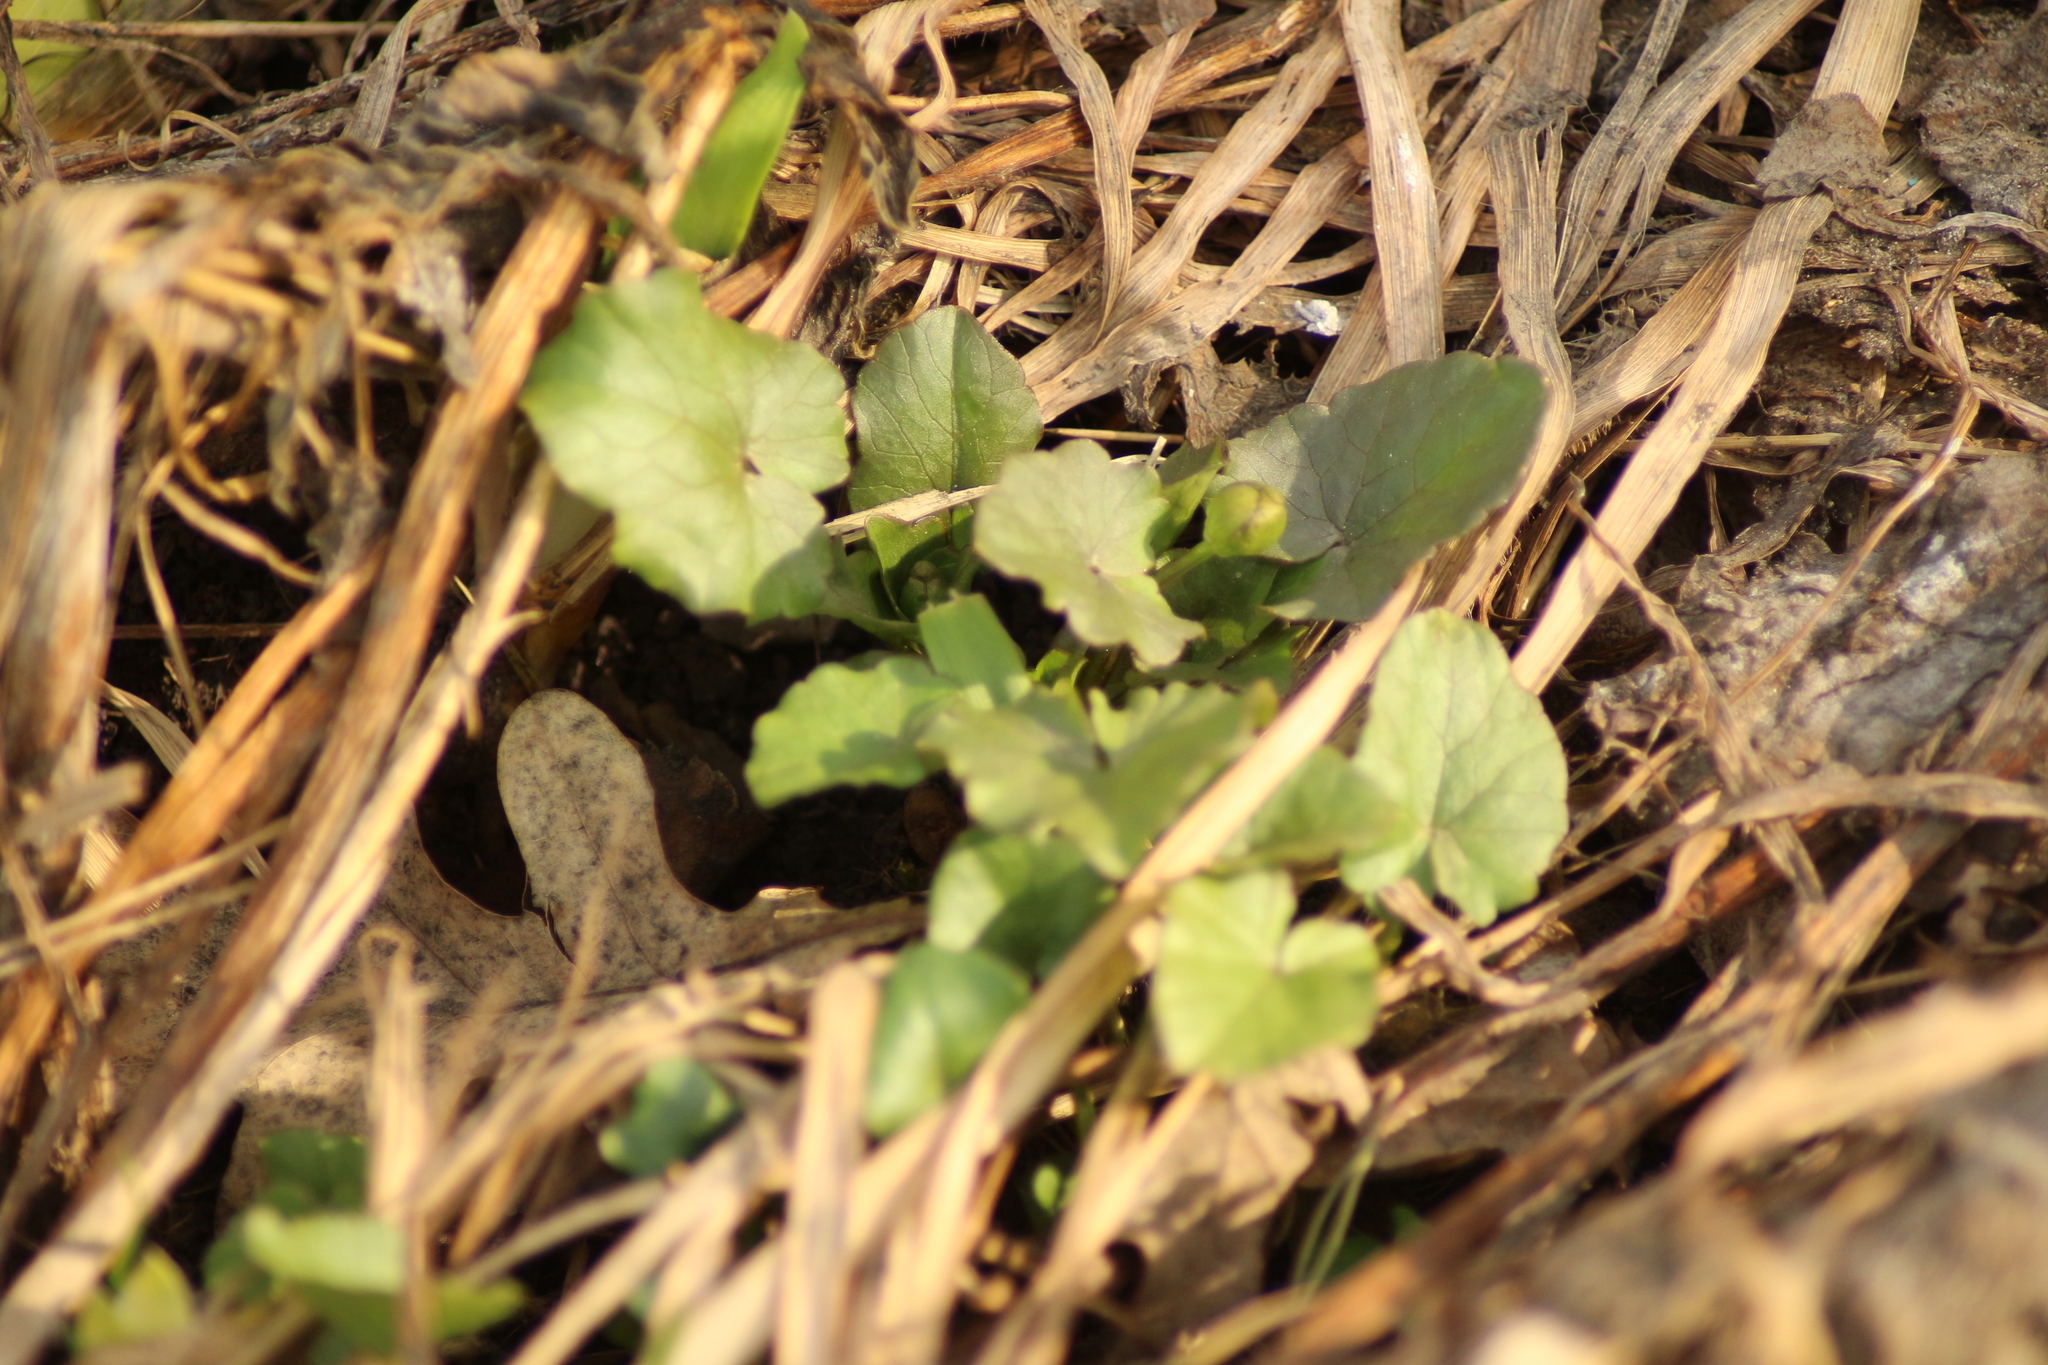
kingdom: Plantae
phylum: Tracheophyta
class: Magnoliopsida
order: Ranunculales
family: Ranunculaceae
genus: Ficaria
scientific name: Ficaria verna
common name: Lesser celandine
